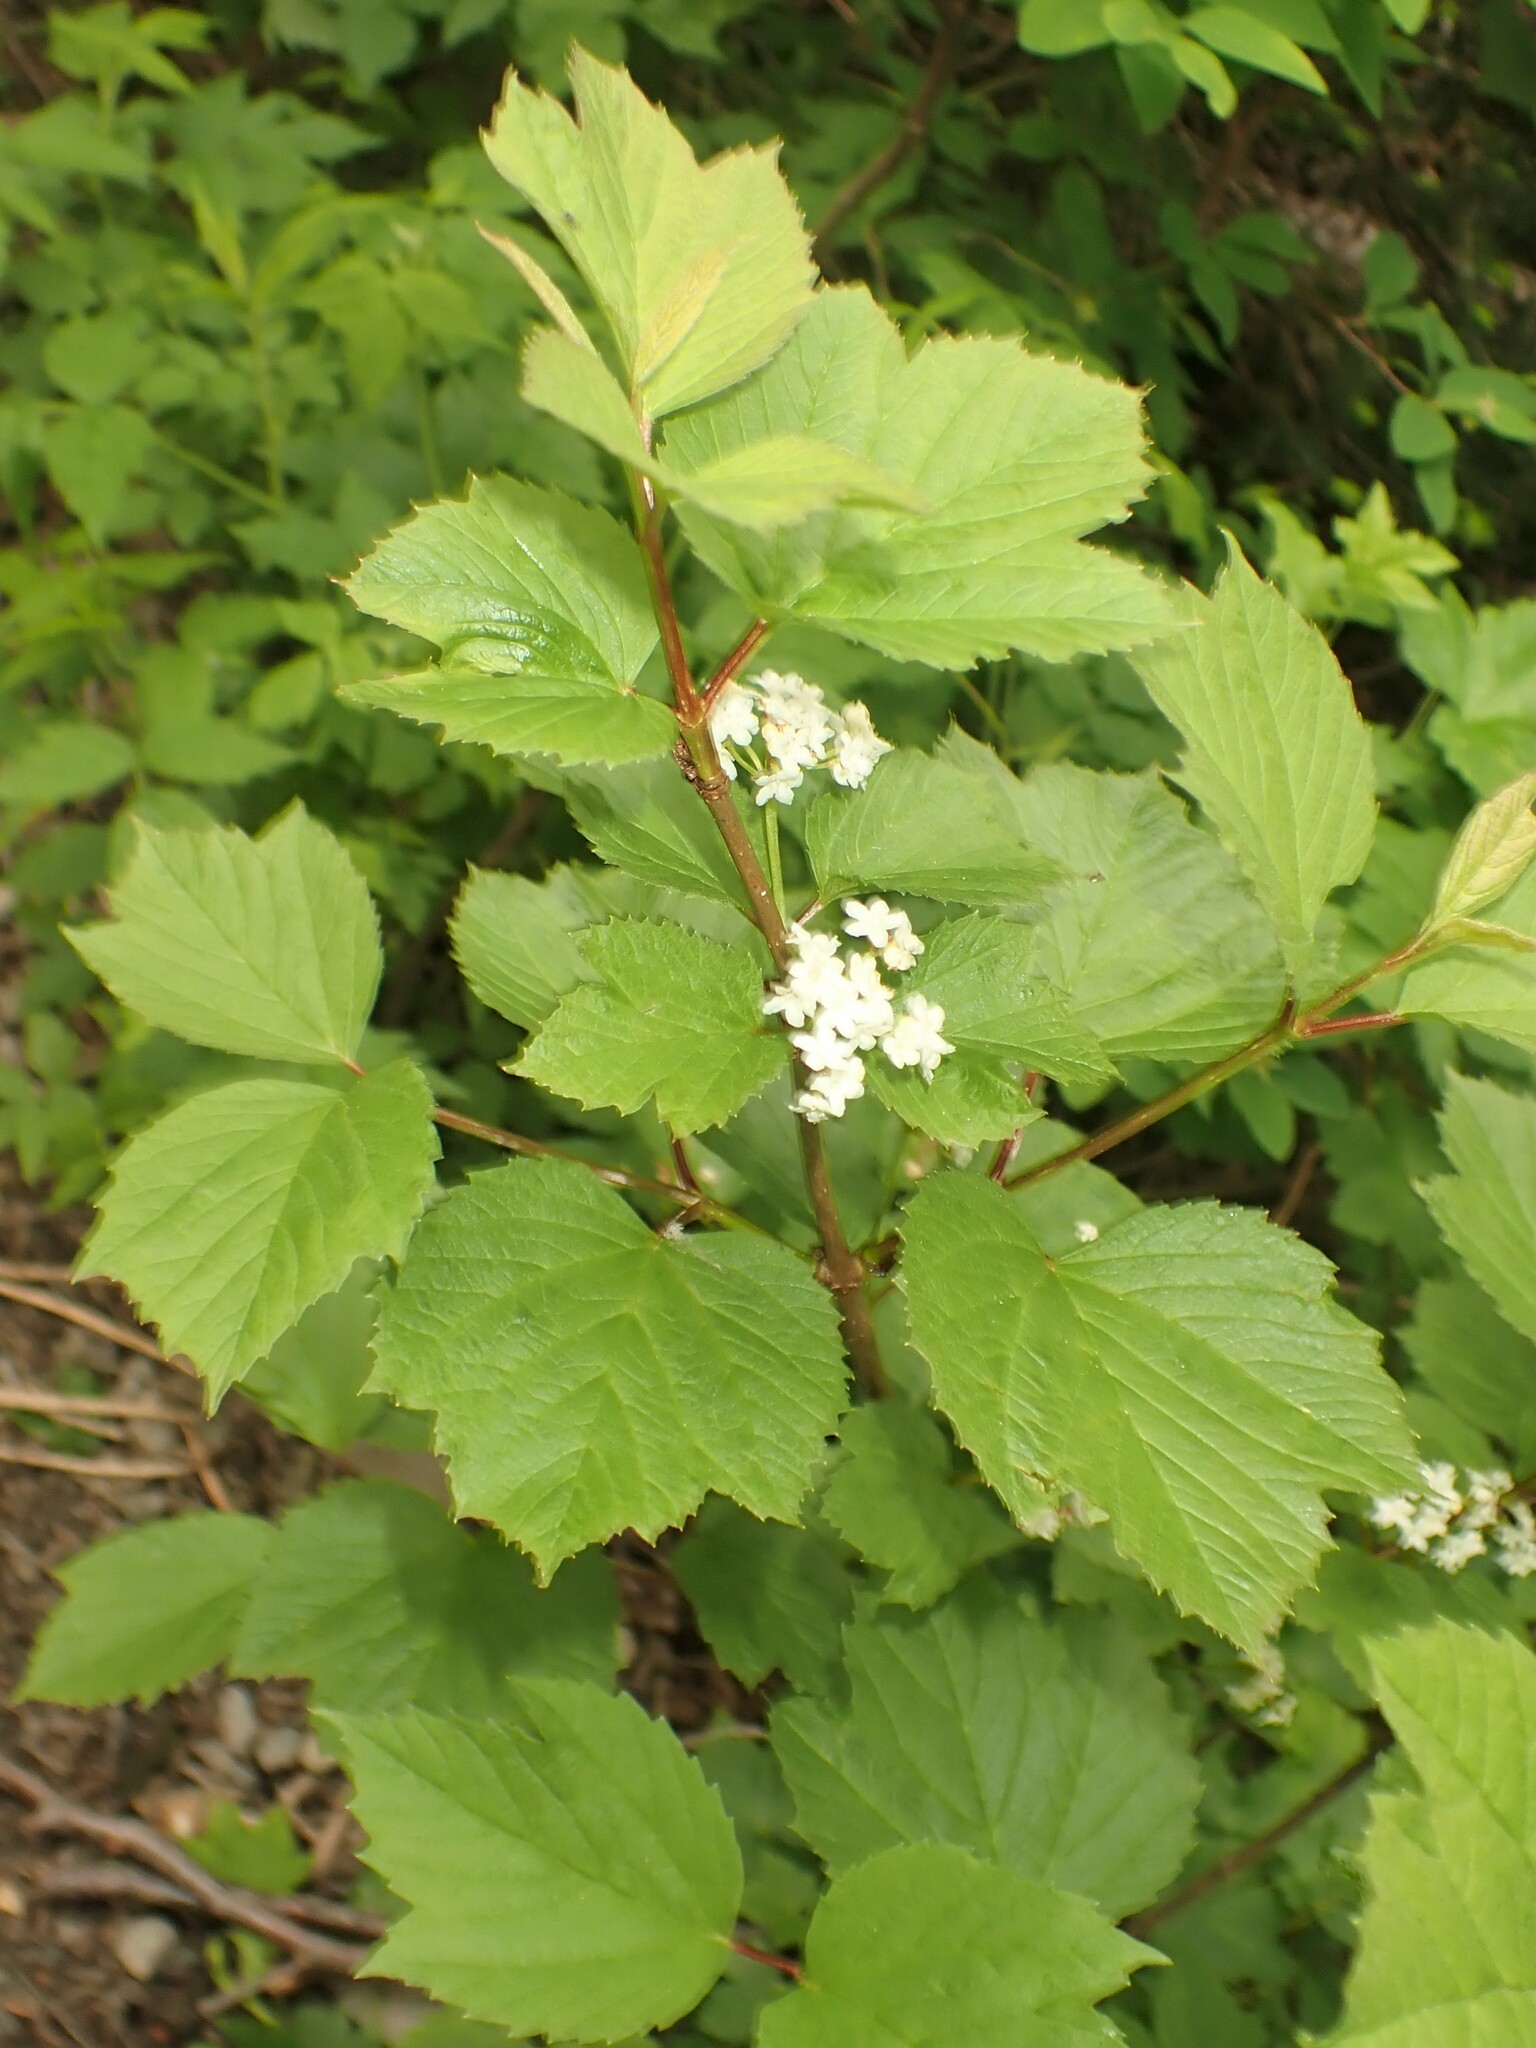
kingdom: Plantae
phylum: Tracheophyta
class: Magnoliopsida
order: Dipsacales
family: Viburnaceae
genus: Viburnum
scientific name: Viburnum edule
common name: Mooseberry
